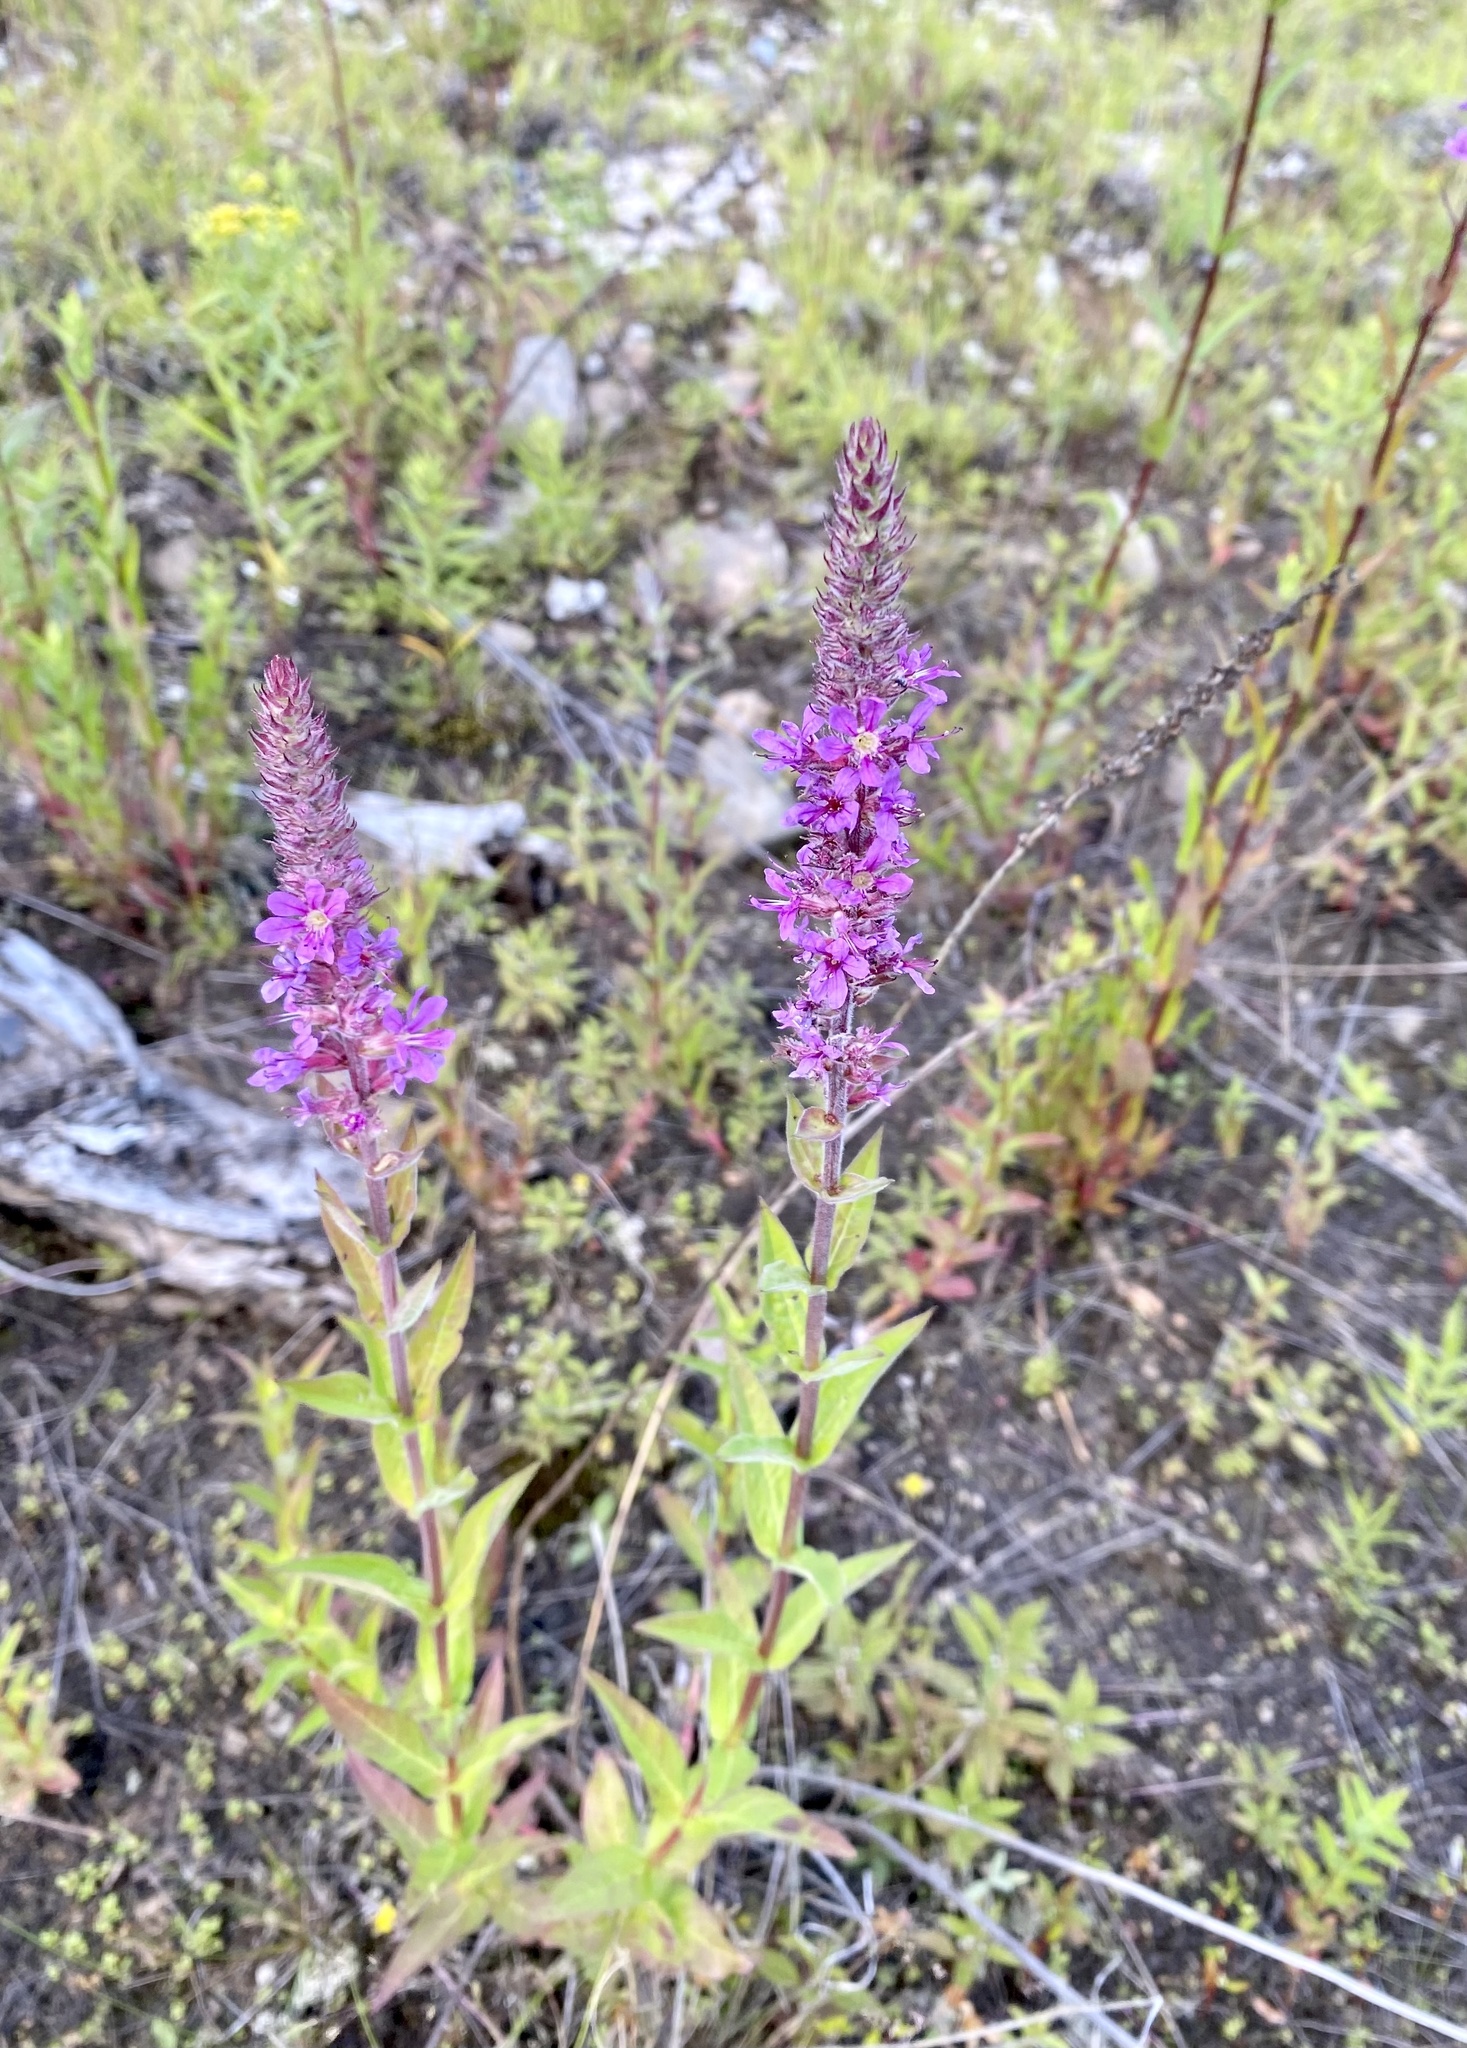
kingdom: Plantae
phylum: Tracheophyta
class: Magnoliopsida
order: Myrtales
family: Lythraceae
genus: Lythrum
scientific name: Lythrum salicaria
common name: Purple loosestrife
